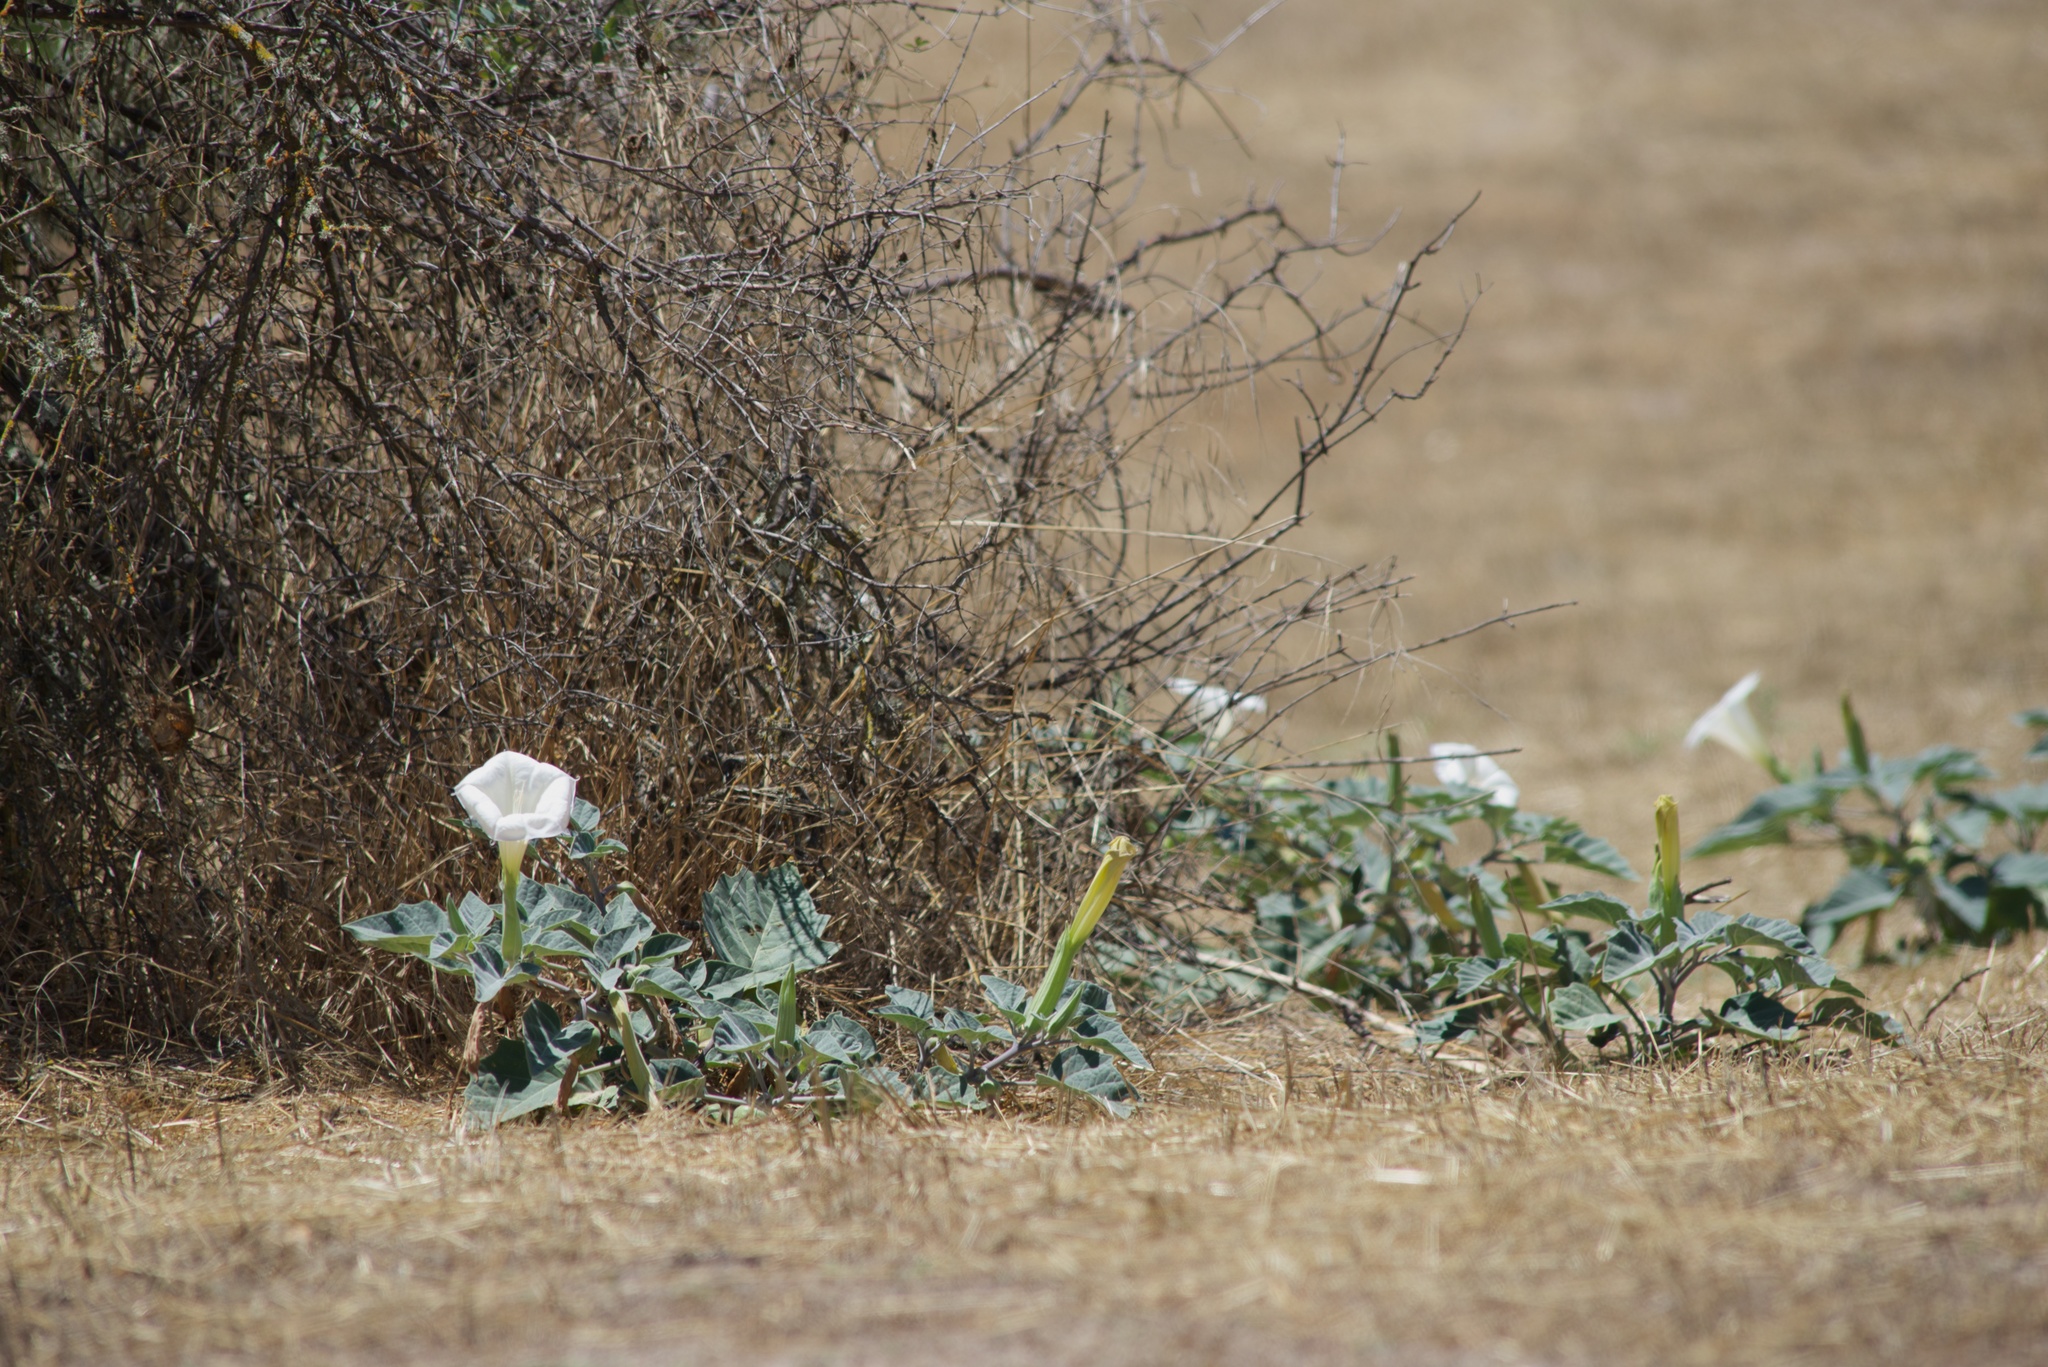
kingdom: Plantae
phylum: Tracheophyta
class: Magnoliopsida
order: Solanales
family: Solanaceae
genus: Datura
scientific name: Datura wrightii
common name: Sacred thorn-apple
